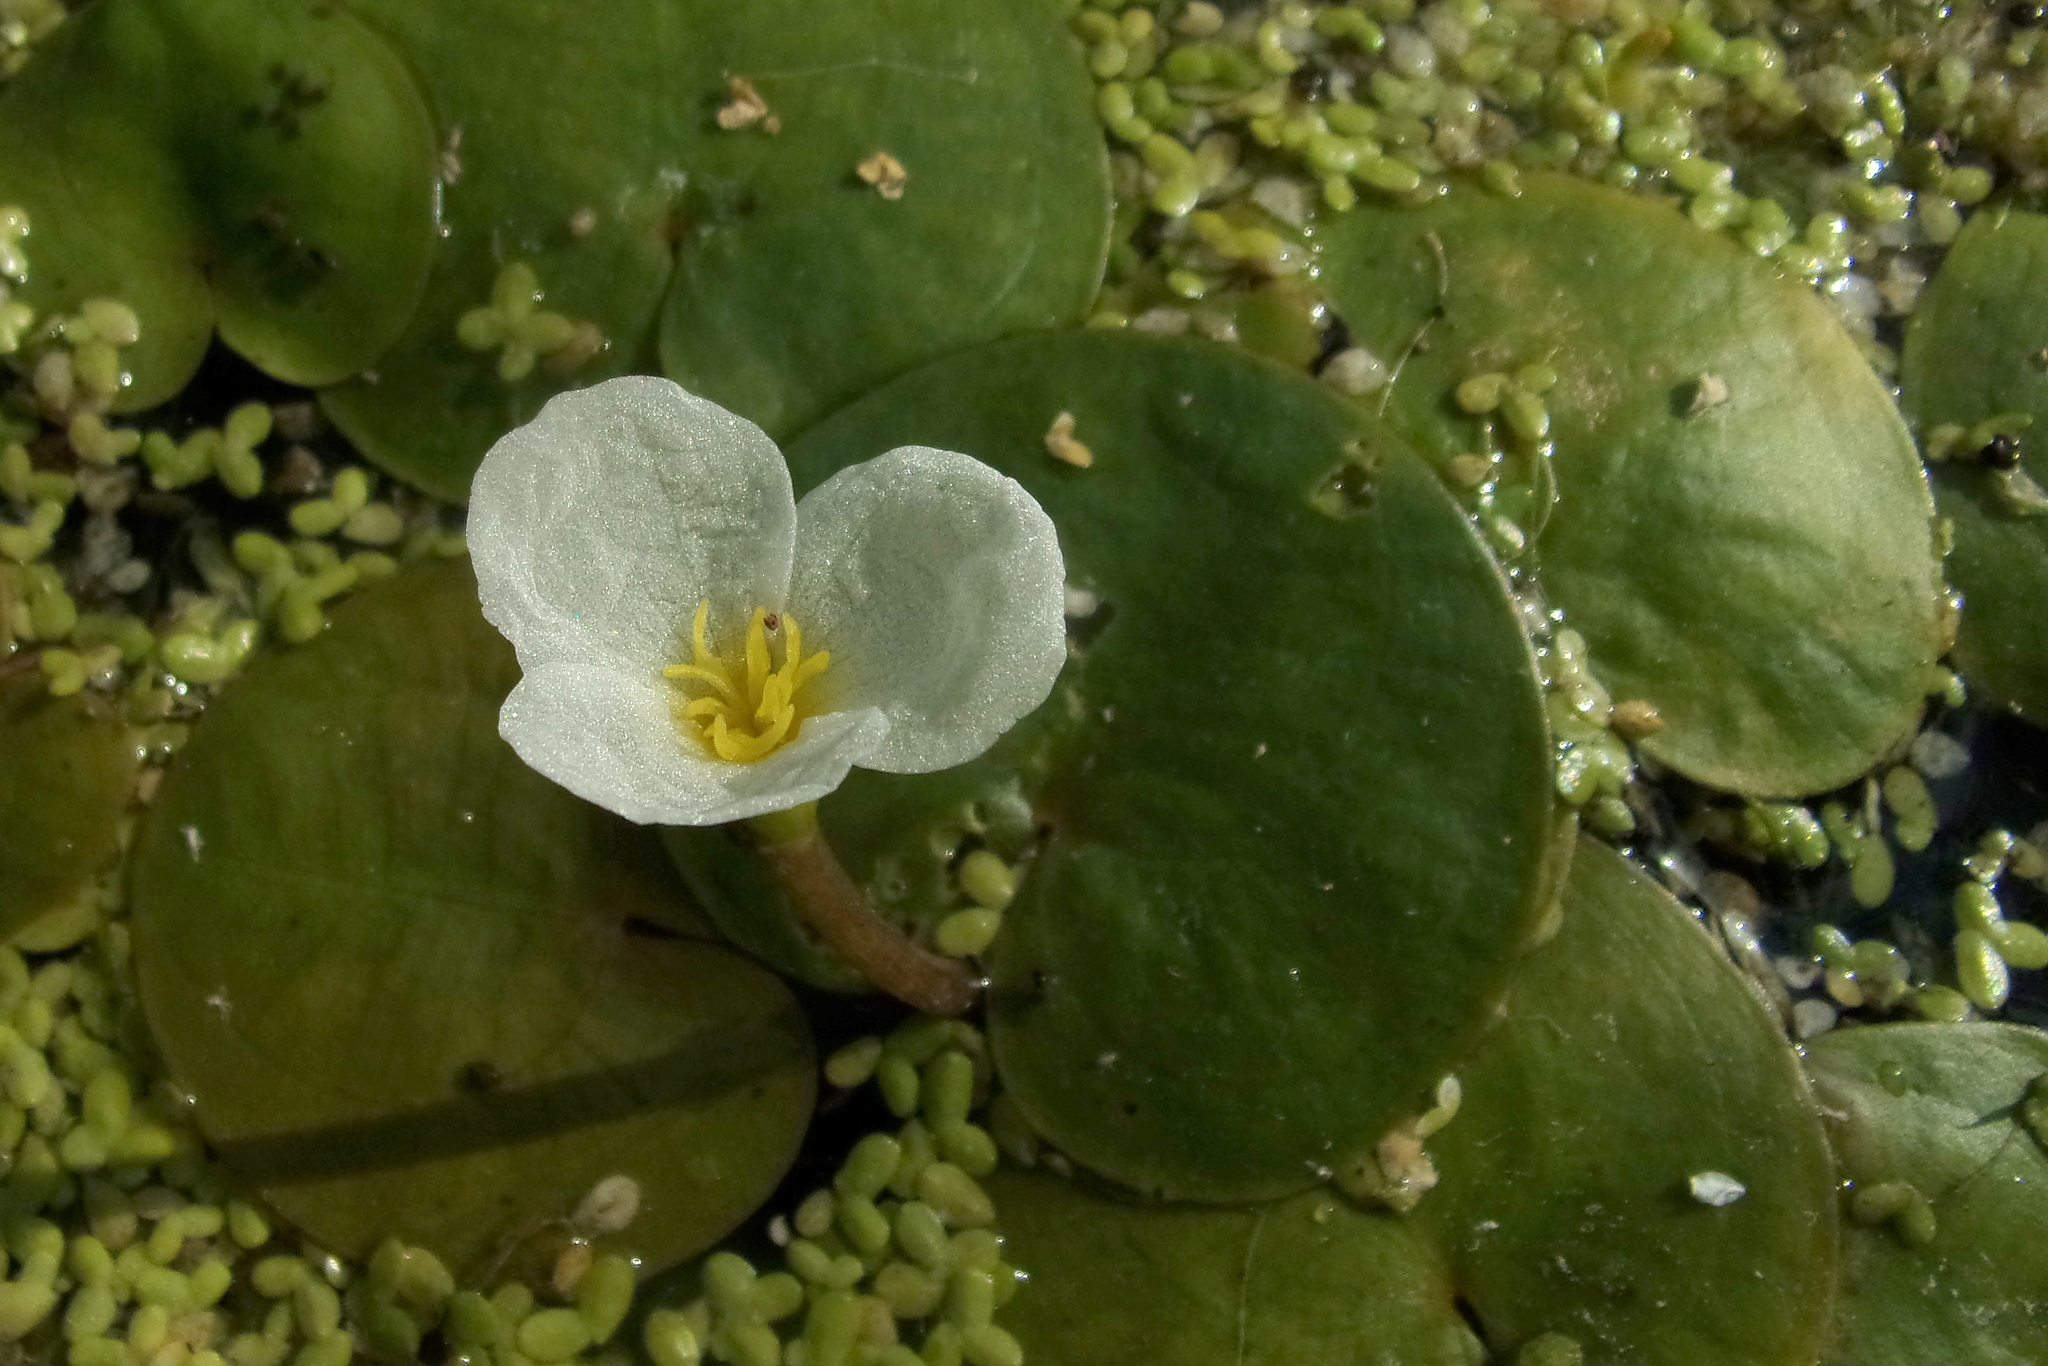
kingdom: Plantae
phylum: Tracheophyta
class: Liliopsida
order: Alismatales
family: Hydrocharitaceae
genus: Hydrocharis
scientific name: Hydrocharis morsus-ranae
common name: Frogbit
